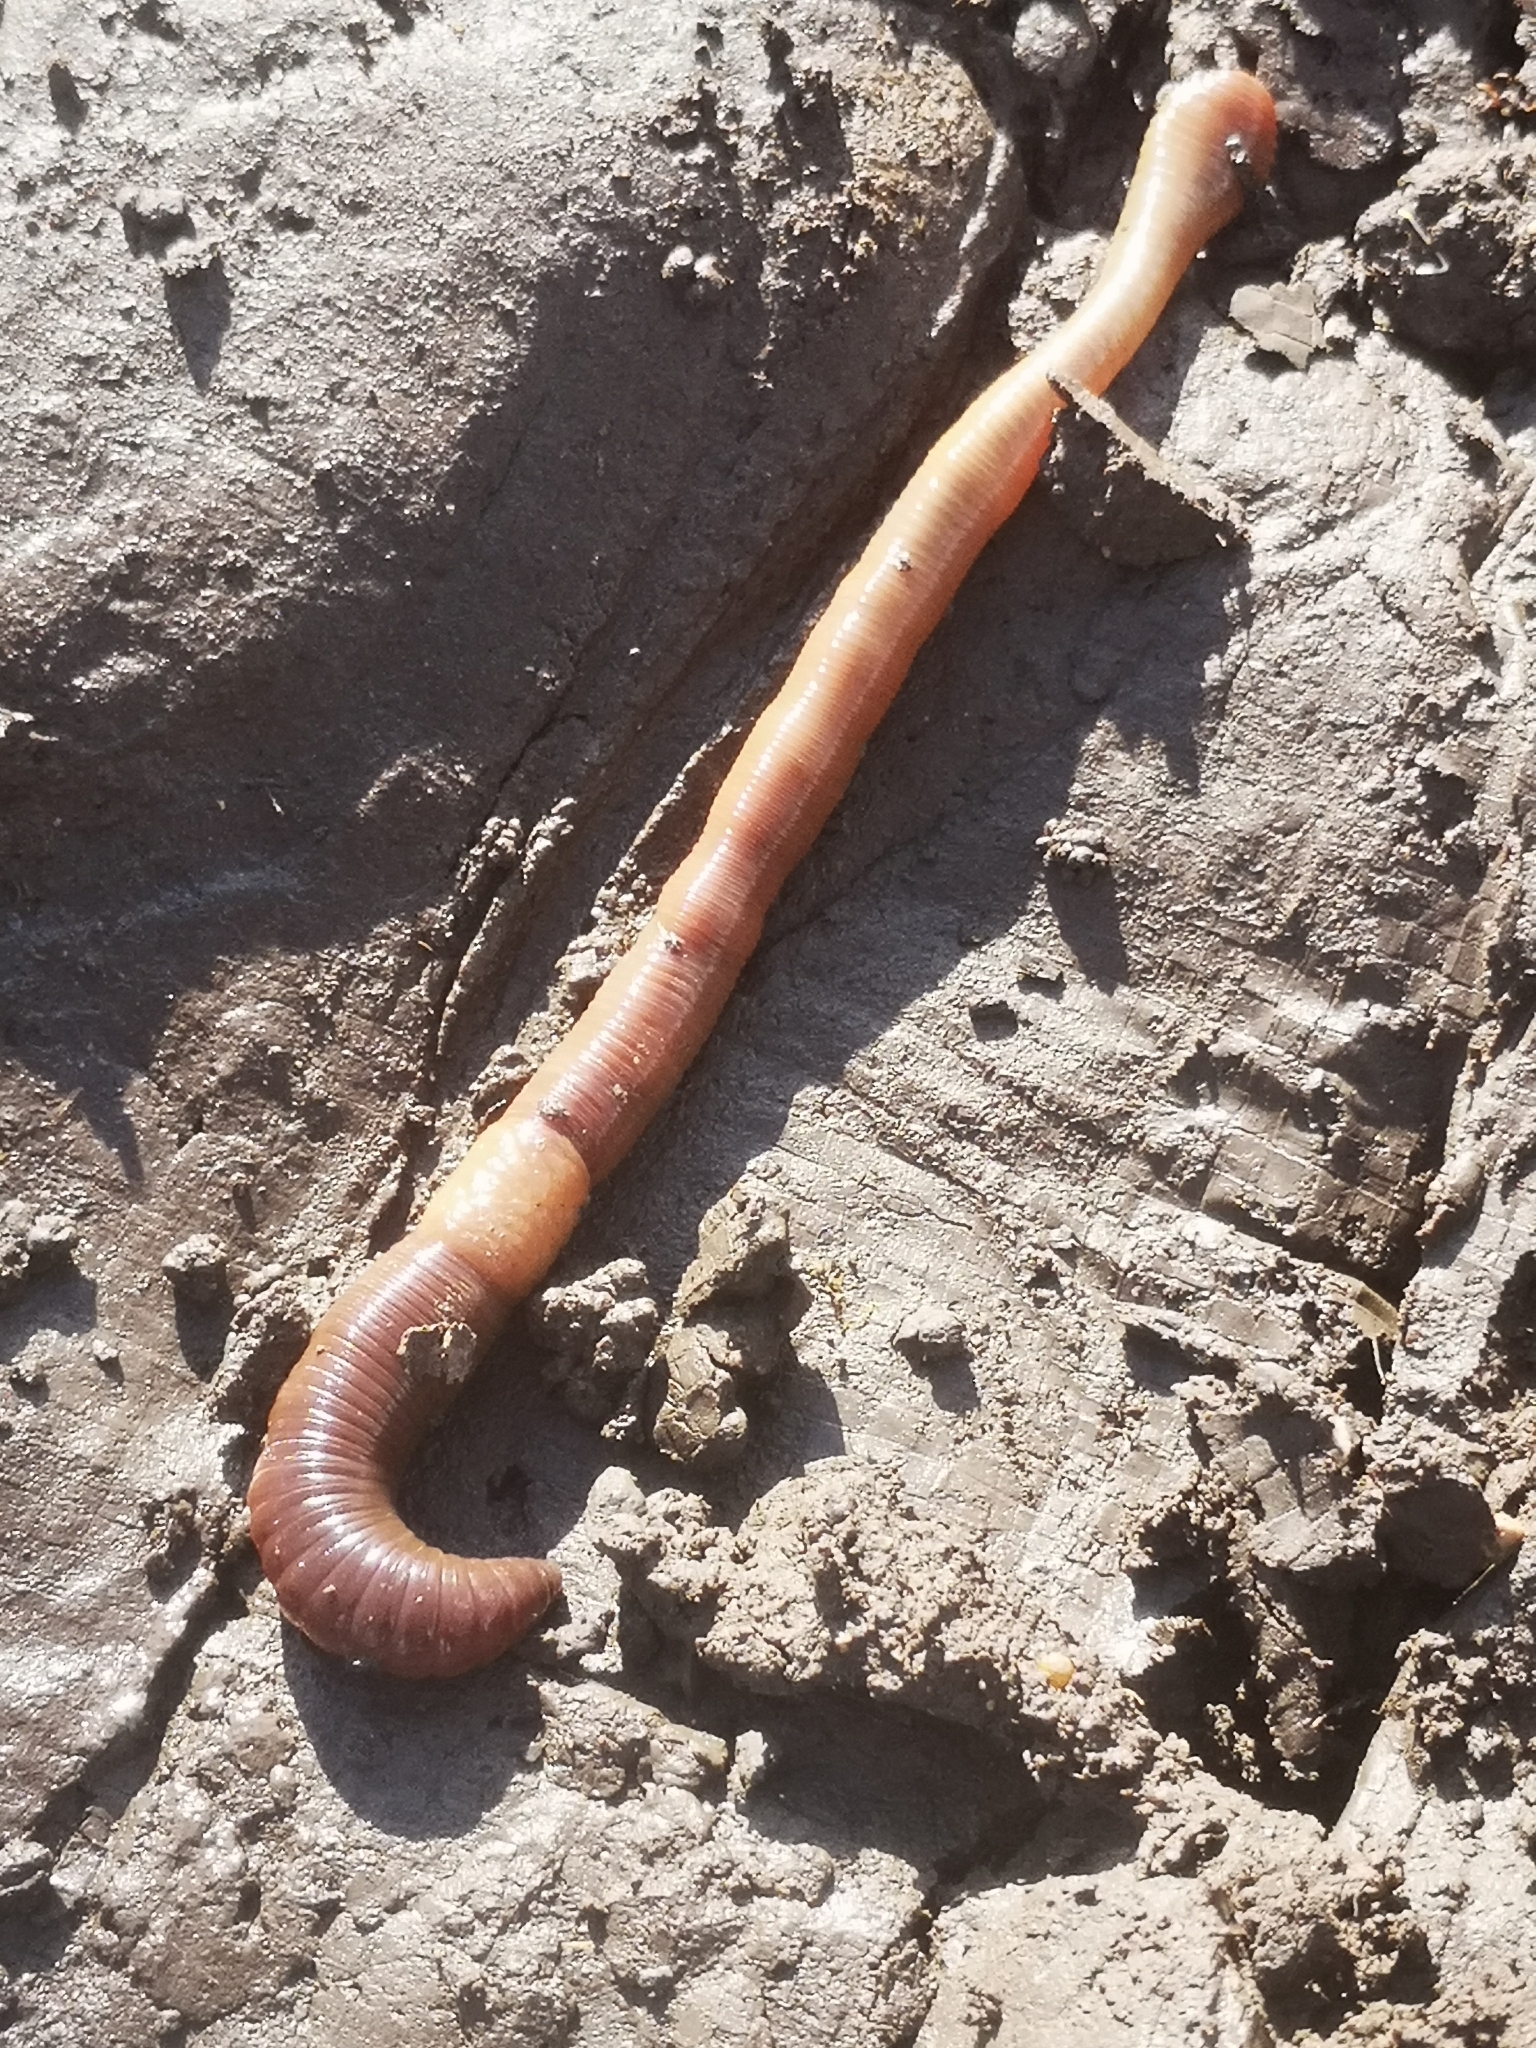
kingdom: Animalia
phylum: Annelida
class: Clitellata
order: Crassiclitellata
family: Lumbricidae
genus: Lumbricus
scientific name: Lumbricus terrestris
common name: Common earthworm
